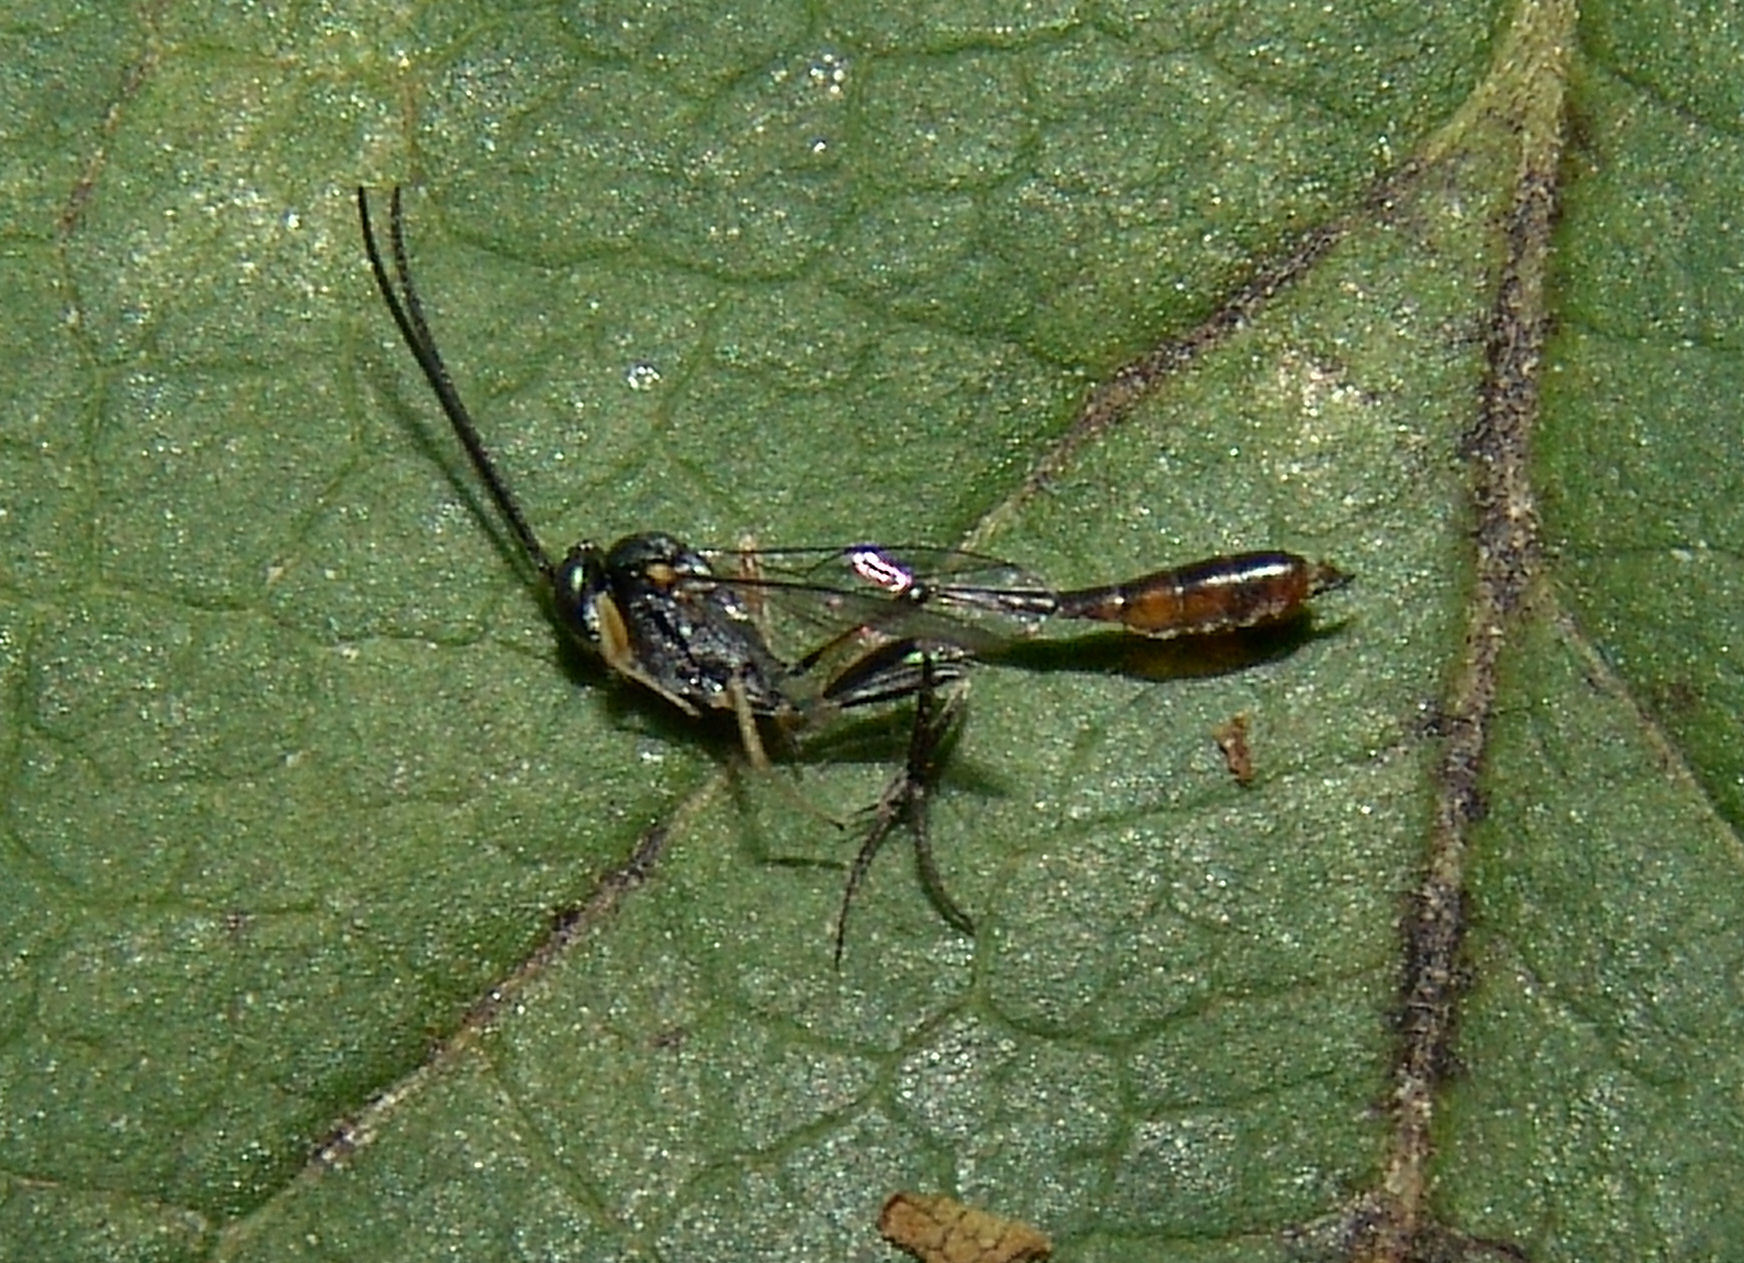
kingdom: Animalia
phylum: Arthropoda
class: Insecta
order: Hymenoptera
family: Ichneumonidae
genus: Charops
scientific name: Charops annulipes
